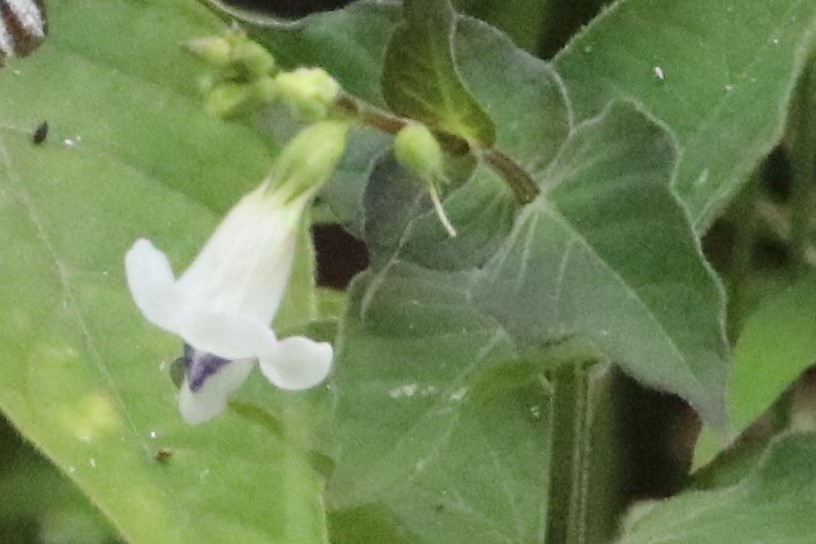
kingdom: Plantae
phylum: Tracheophyta
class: Magnoliopsida
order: Lamiales
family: Acanthaceae
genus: Asystasia
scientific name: Asystasia intrusa
